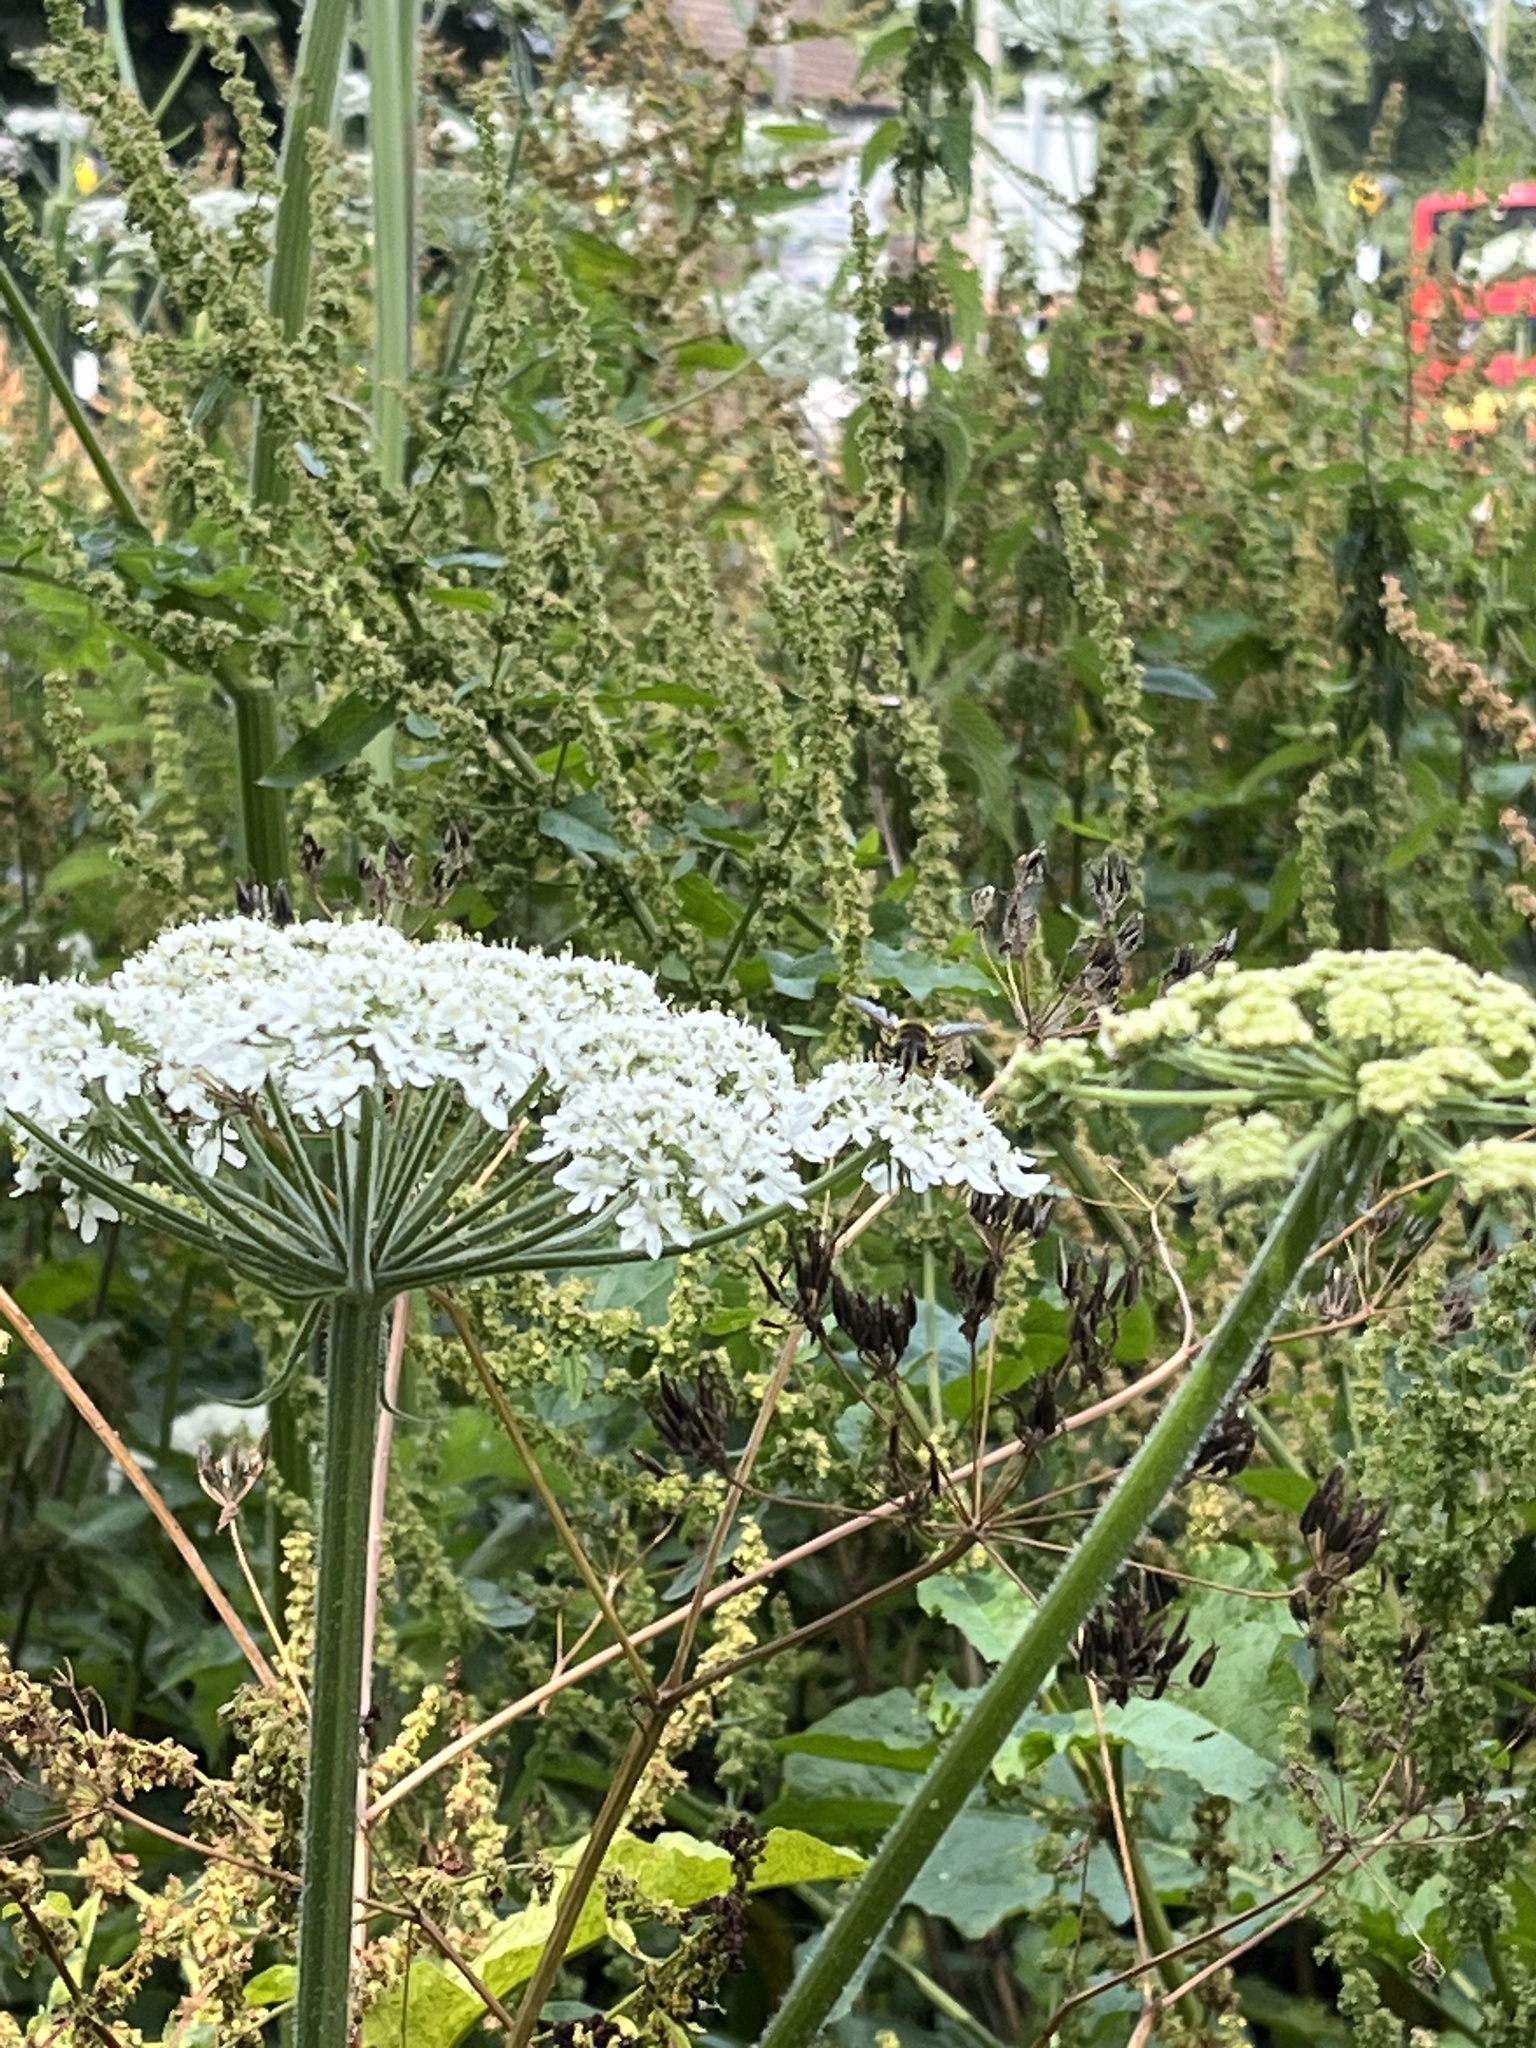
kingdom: Animalia
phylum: Arthropoda
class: Insecta
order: Diptera
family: Syrphidae
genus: Myathropa
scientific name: Myathropa florea
